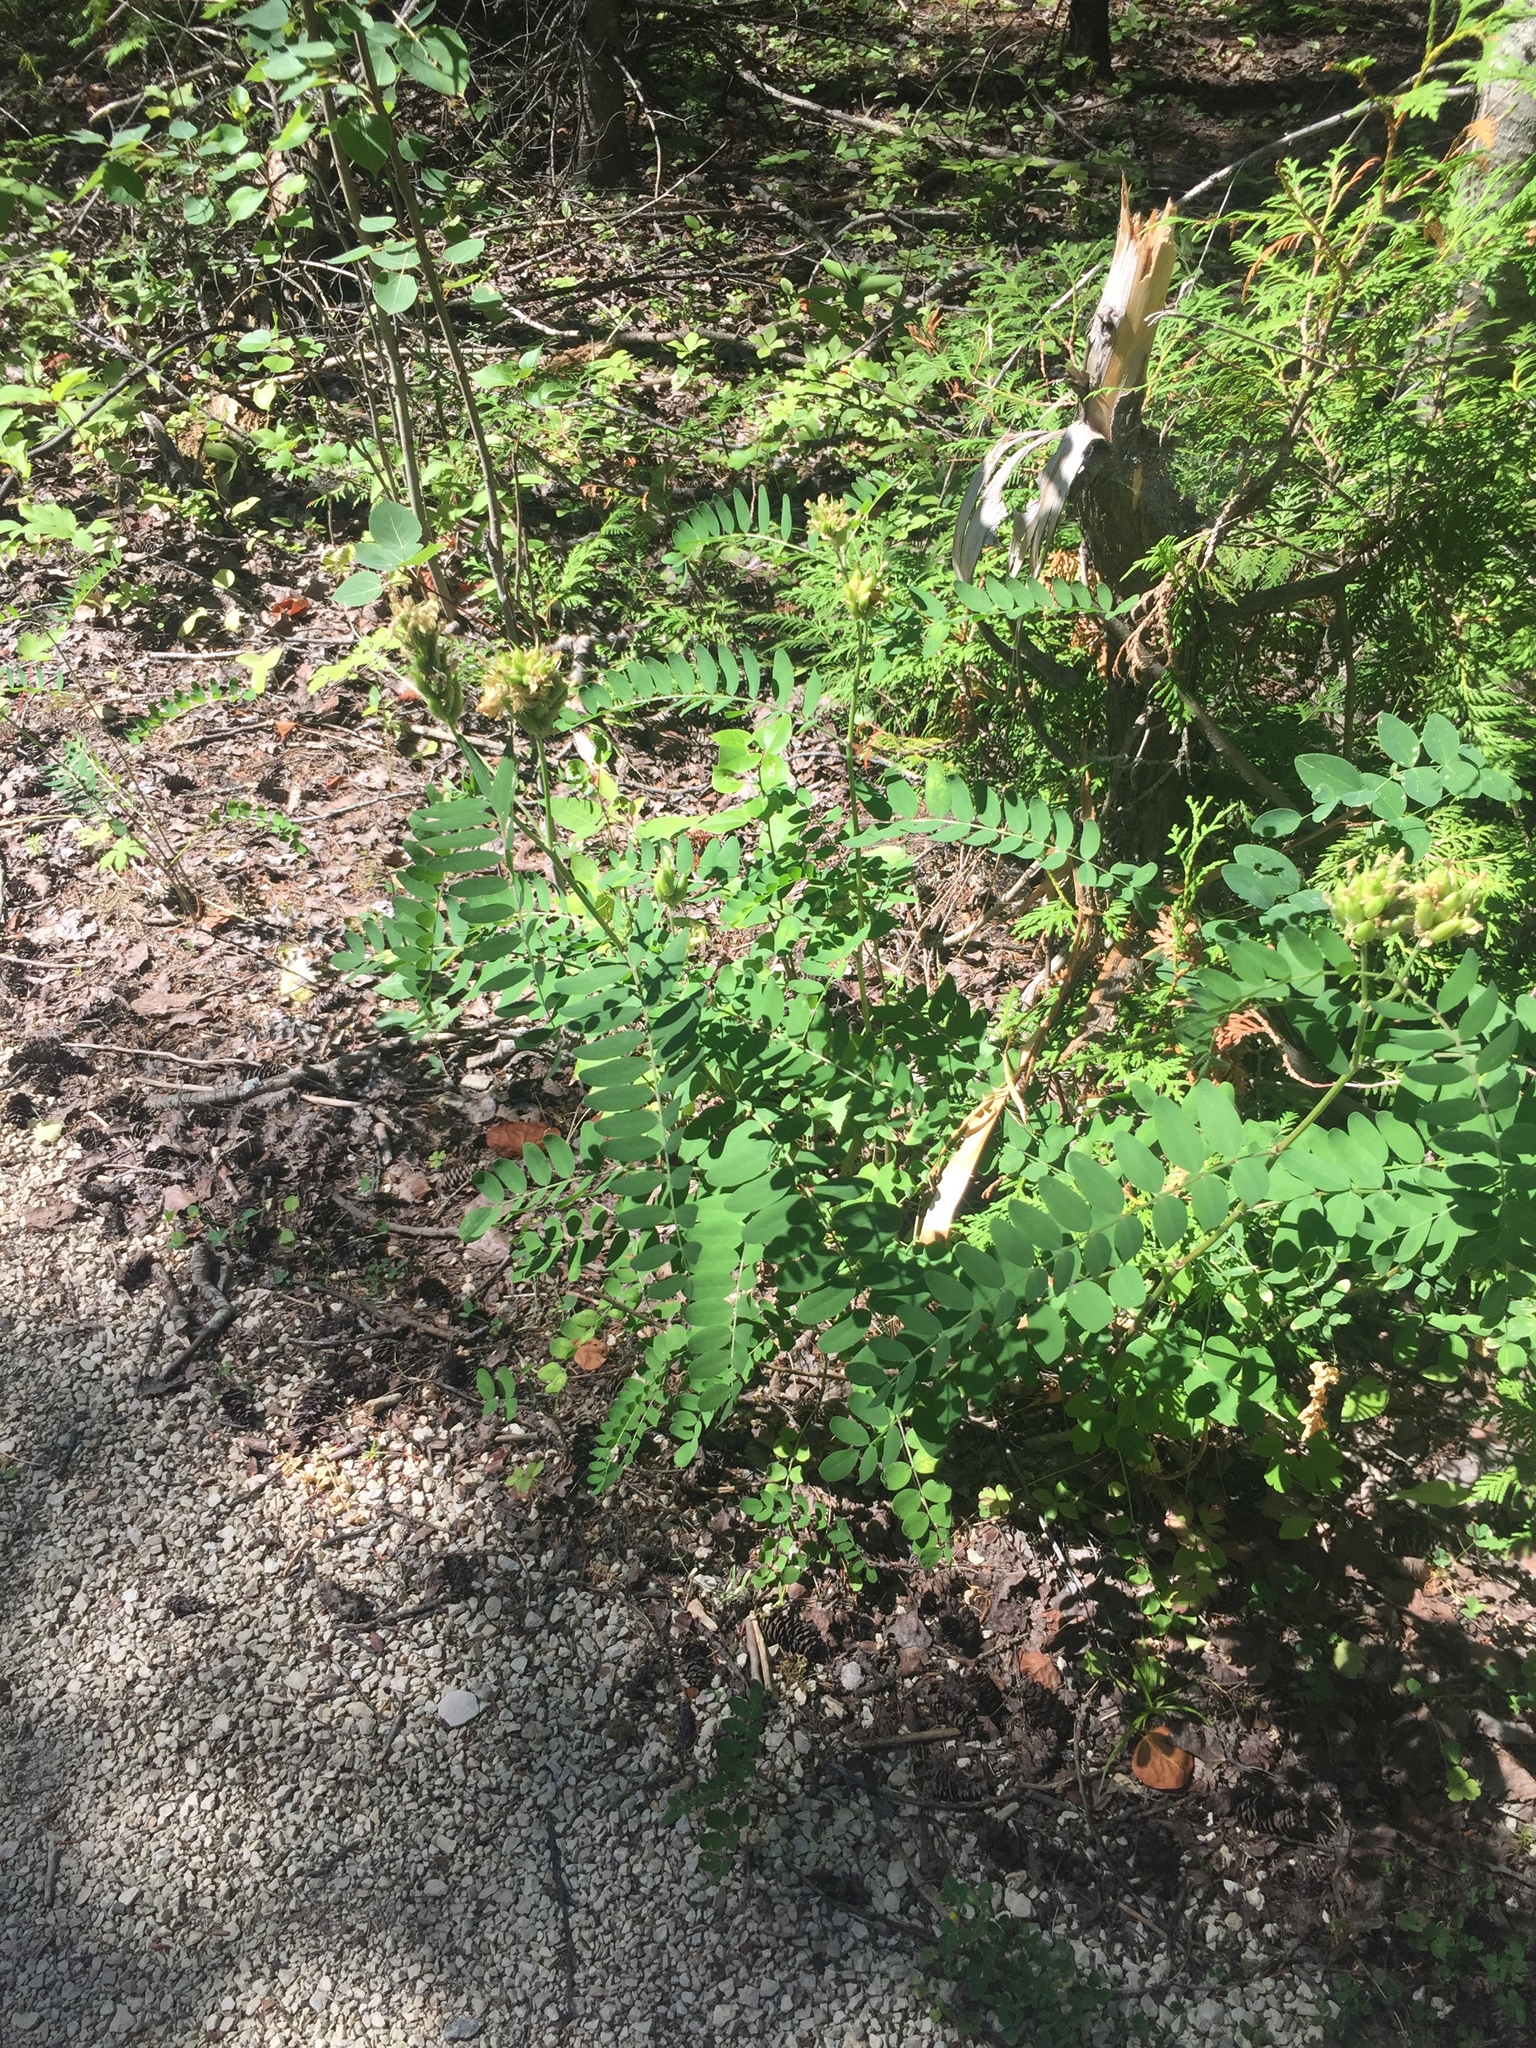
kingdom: Plantae
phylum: Tracheophyta
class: Magnoliopsida
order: Fabales
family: Fabaceae
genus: Astragalus
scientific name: Astragalus canadensis
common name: Canada milk-vetch
